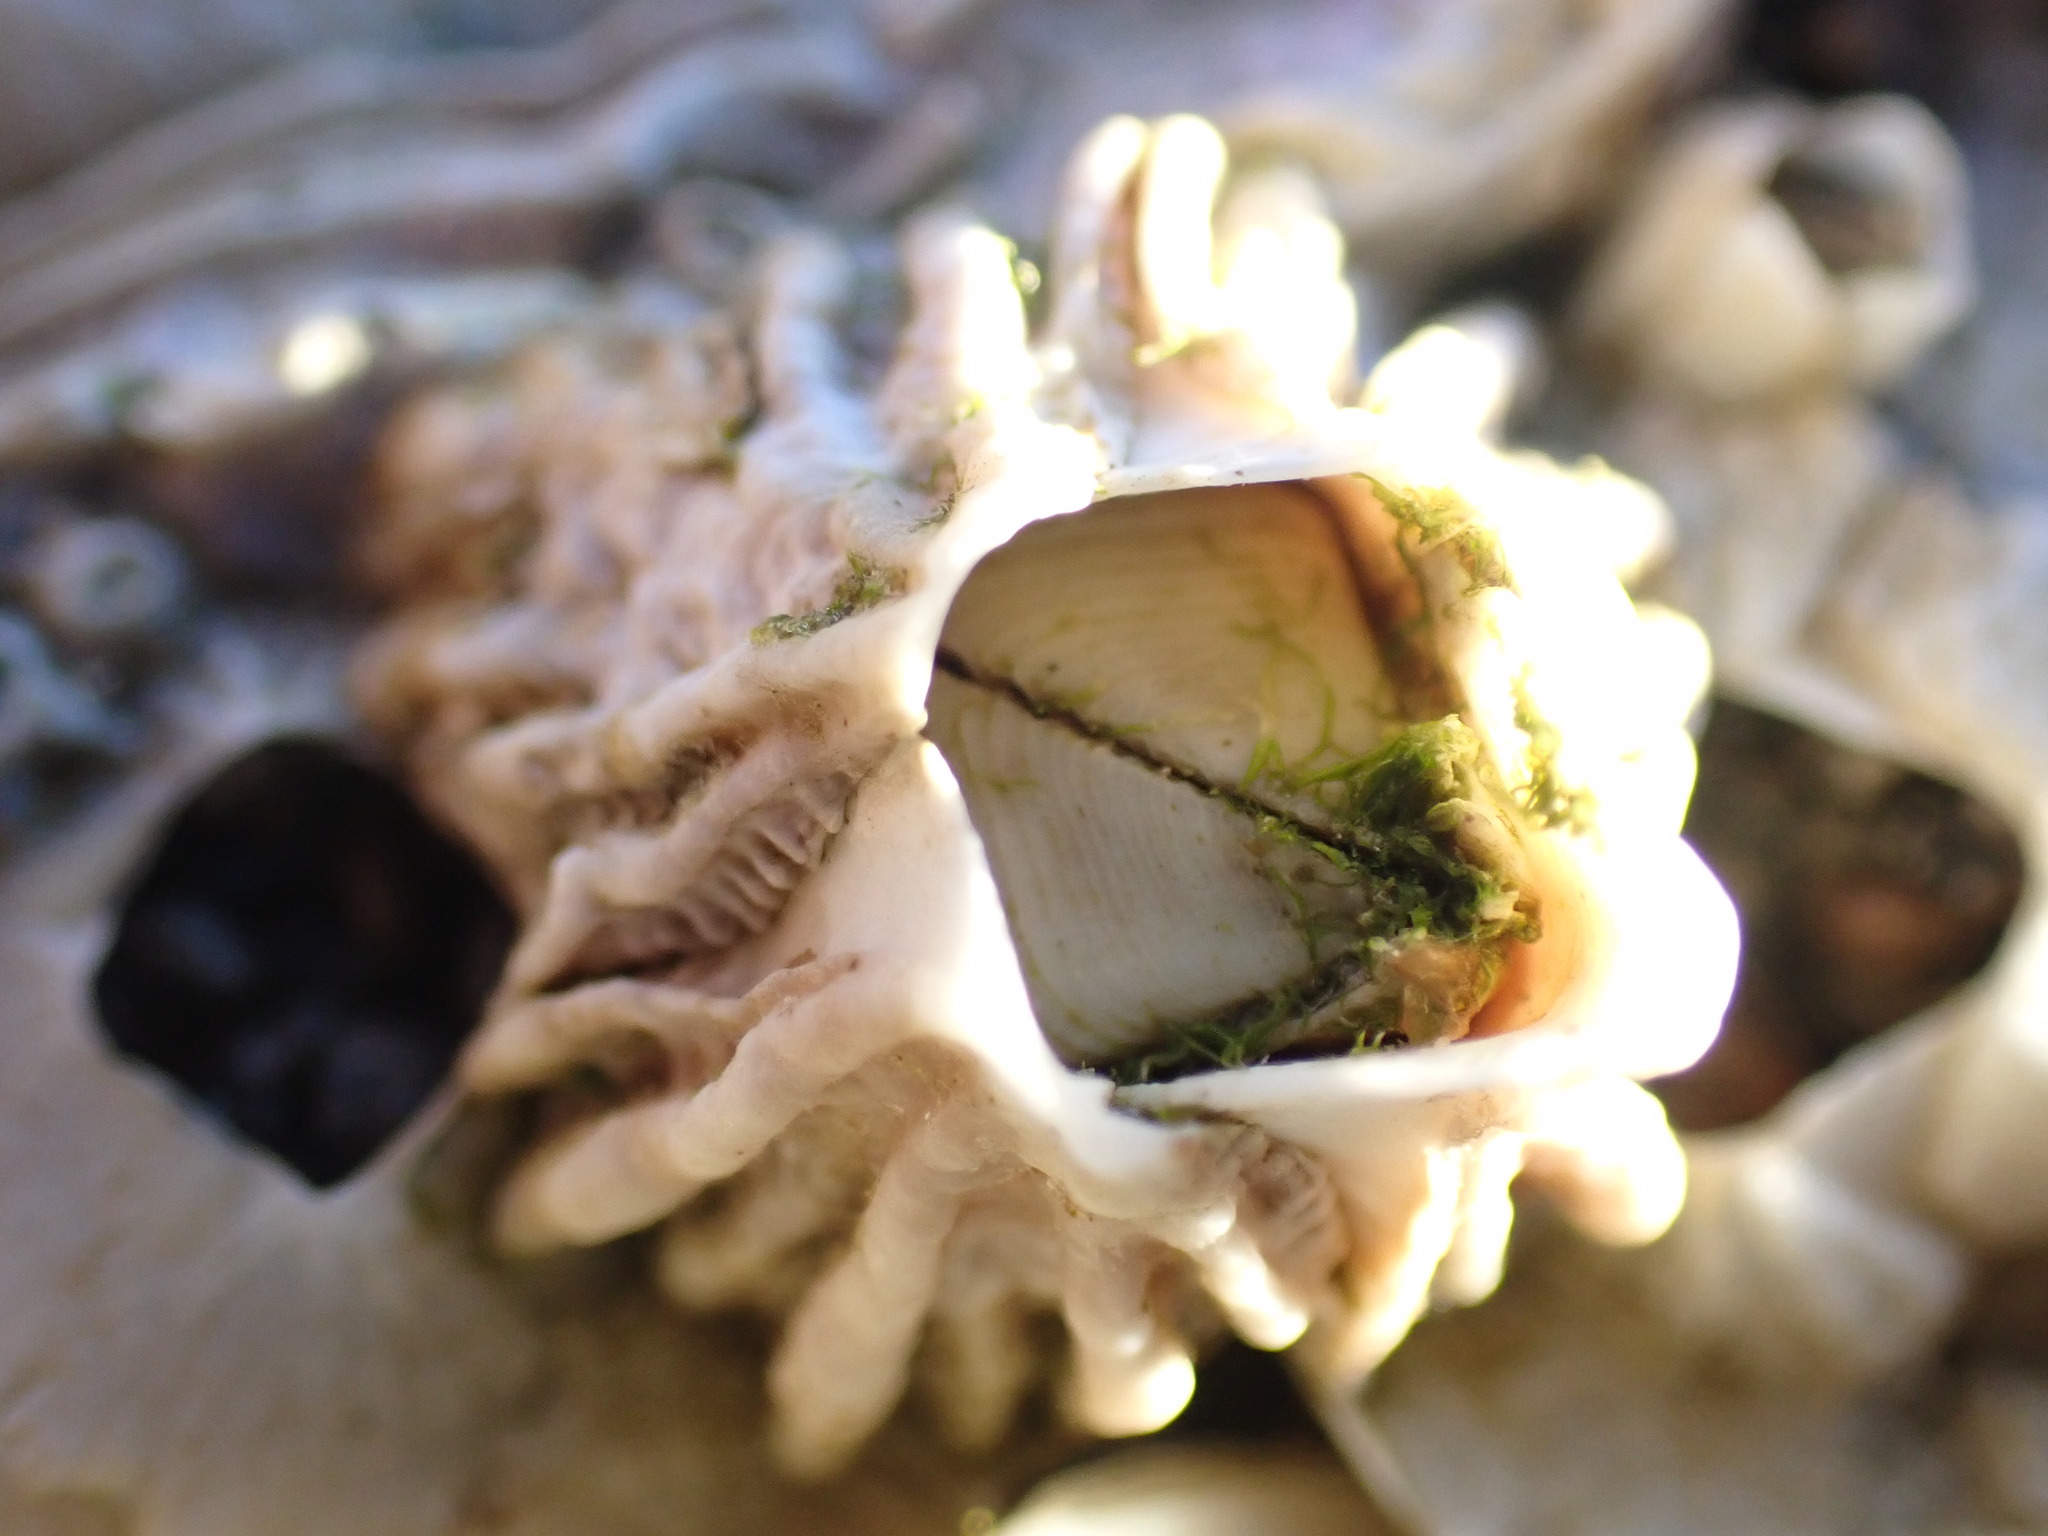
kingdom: Animalia
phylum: Arthropoda
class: Maxillopoda
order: Sessilia
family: Tetraclitidae
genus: Epopella
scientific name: Epopella plicata
